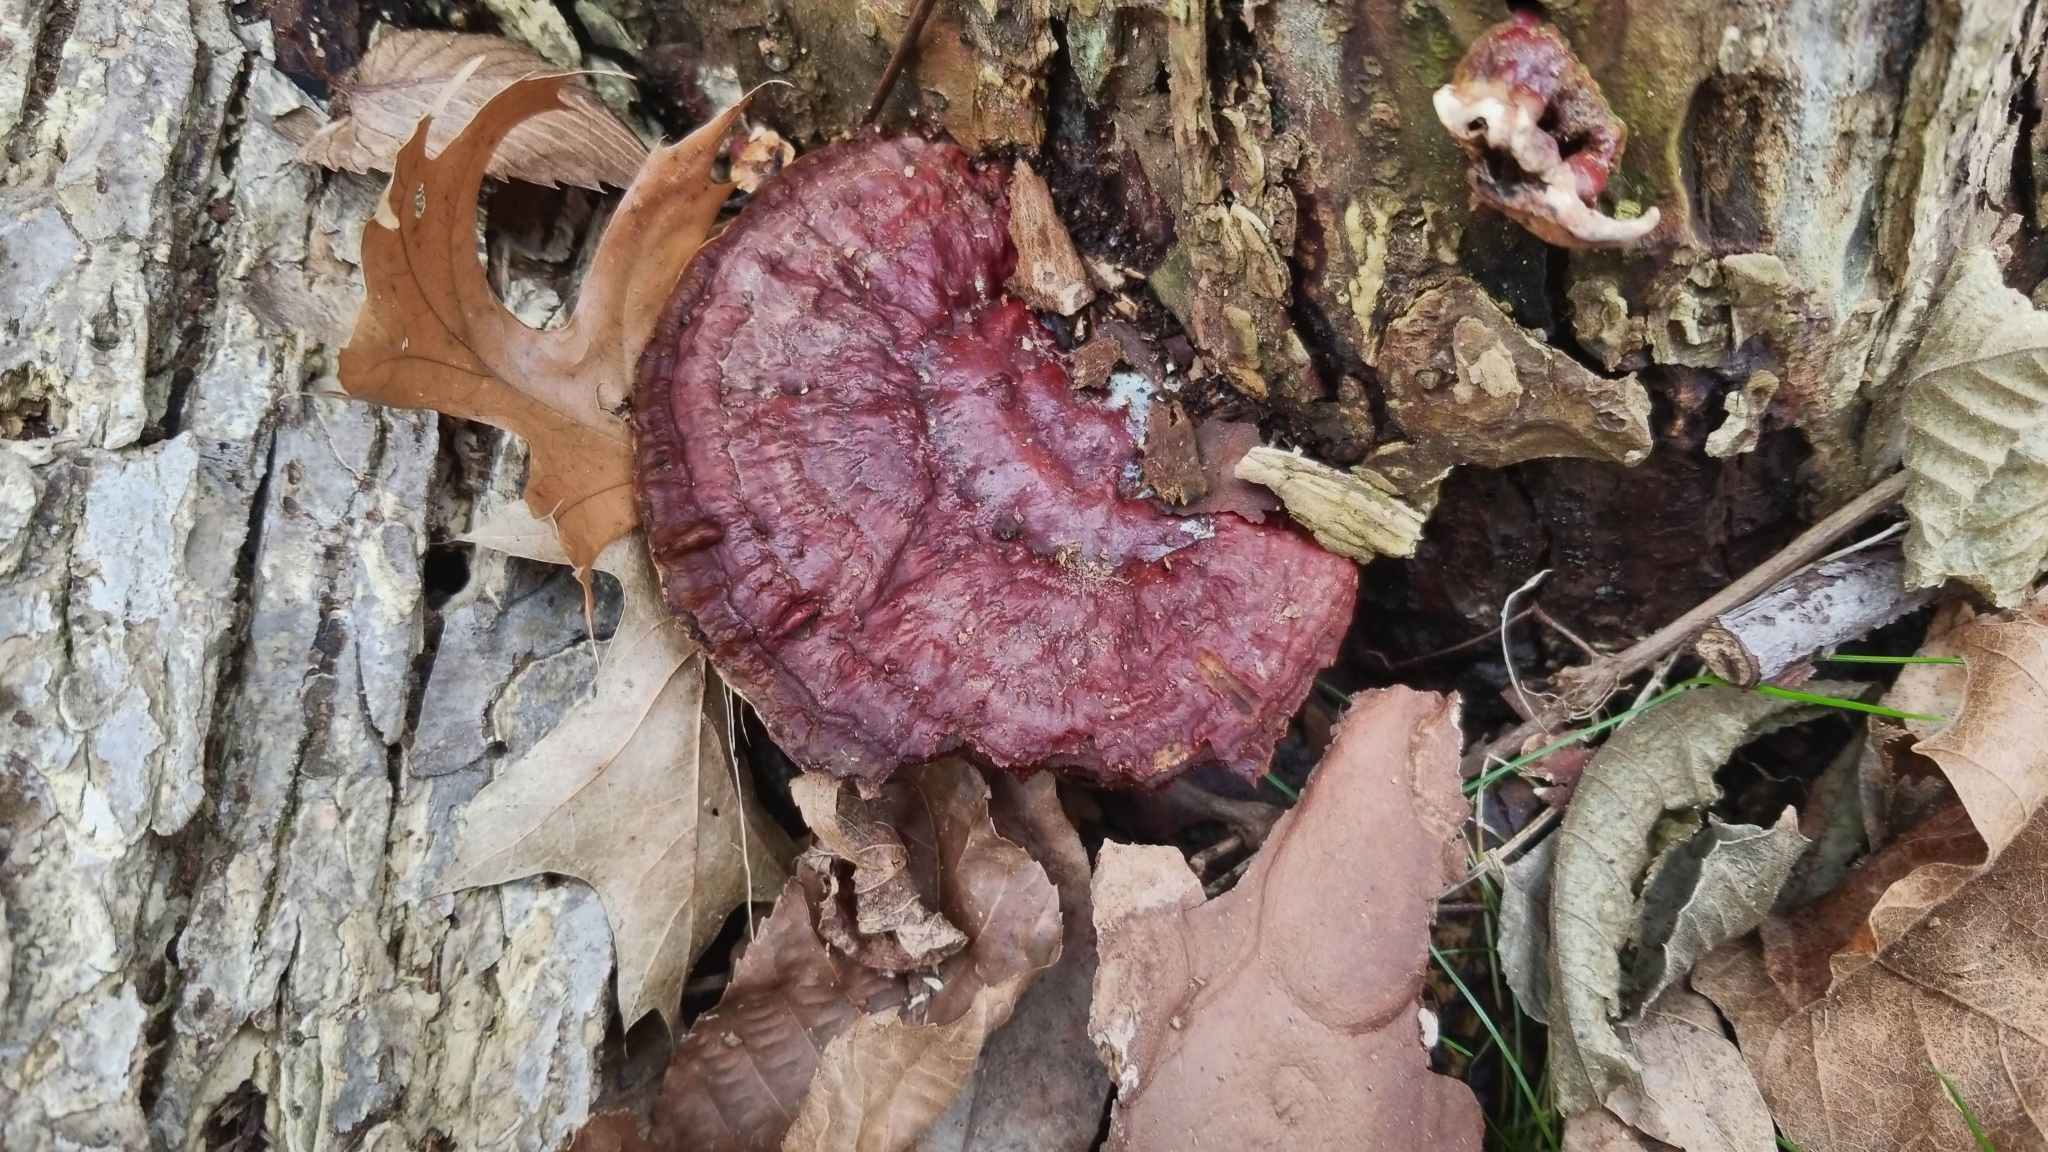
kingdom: Fungi
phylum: Basidiomycota
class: Agaricomycetes
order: Polyporales
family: Polyporaceae
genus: Ganoderma
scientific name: Ganoderma resinaceum
